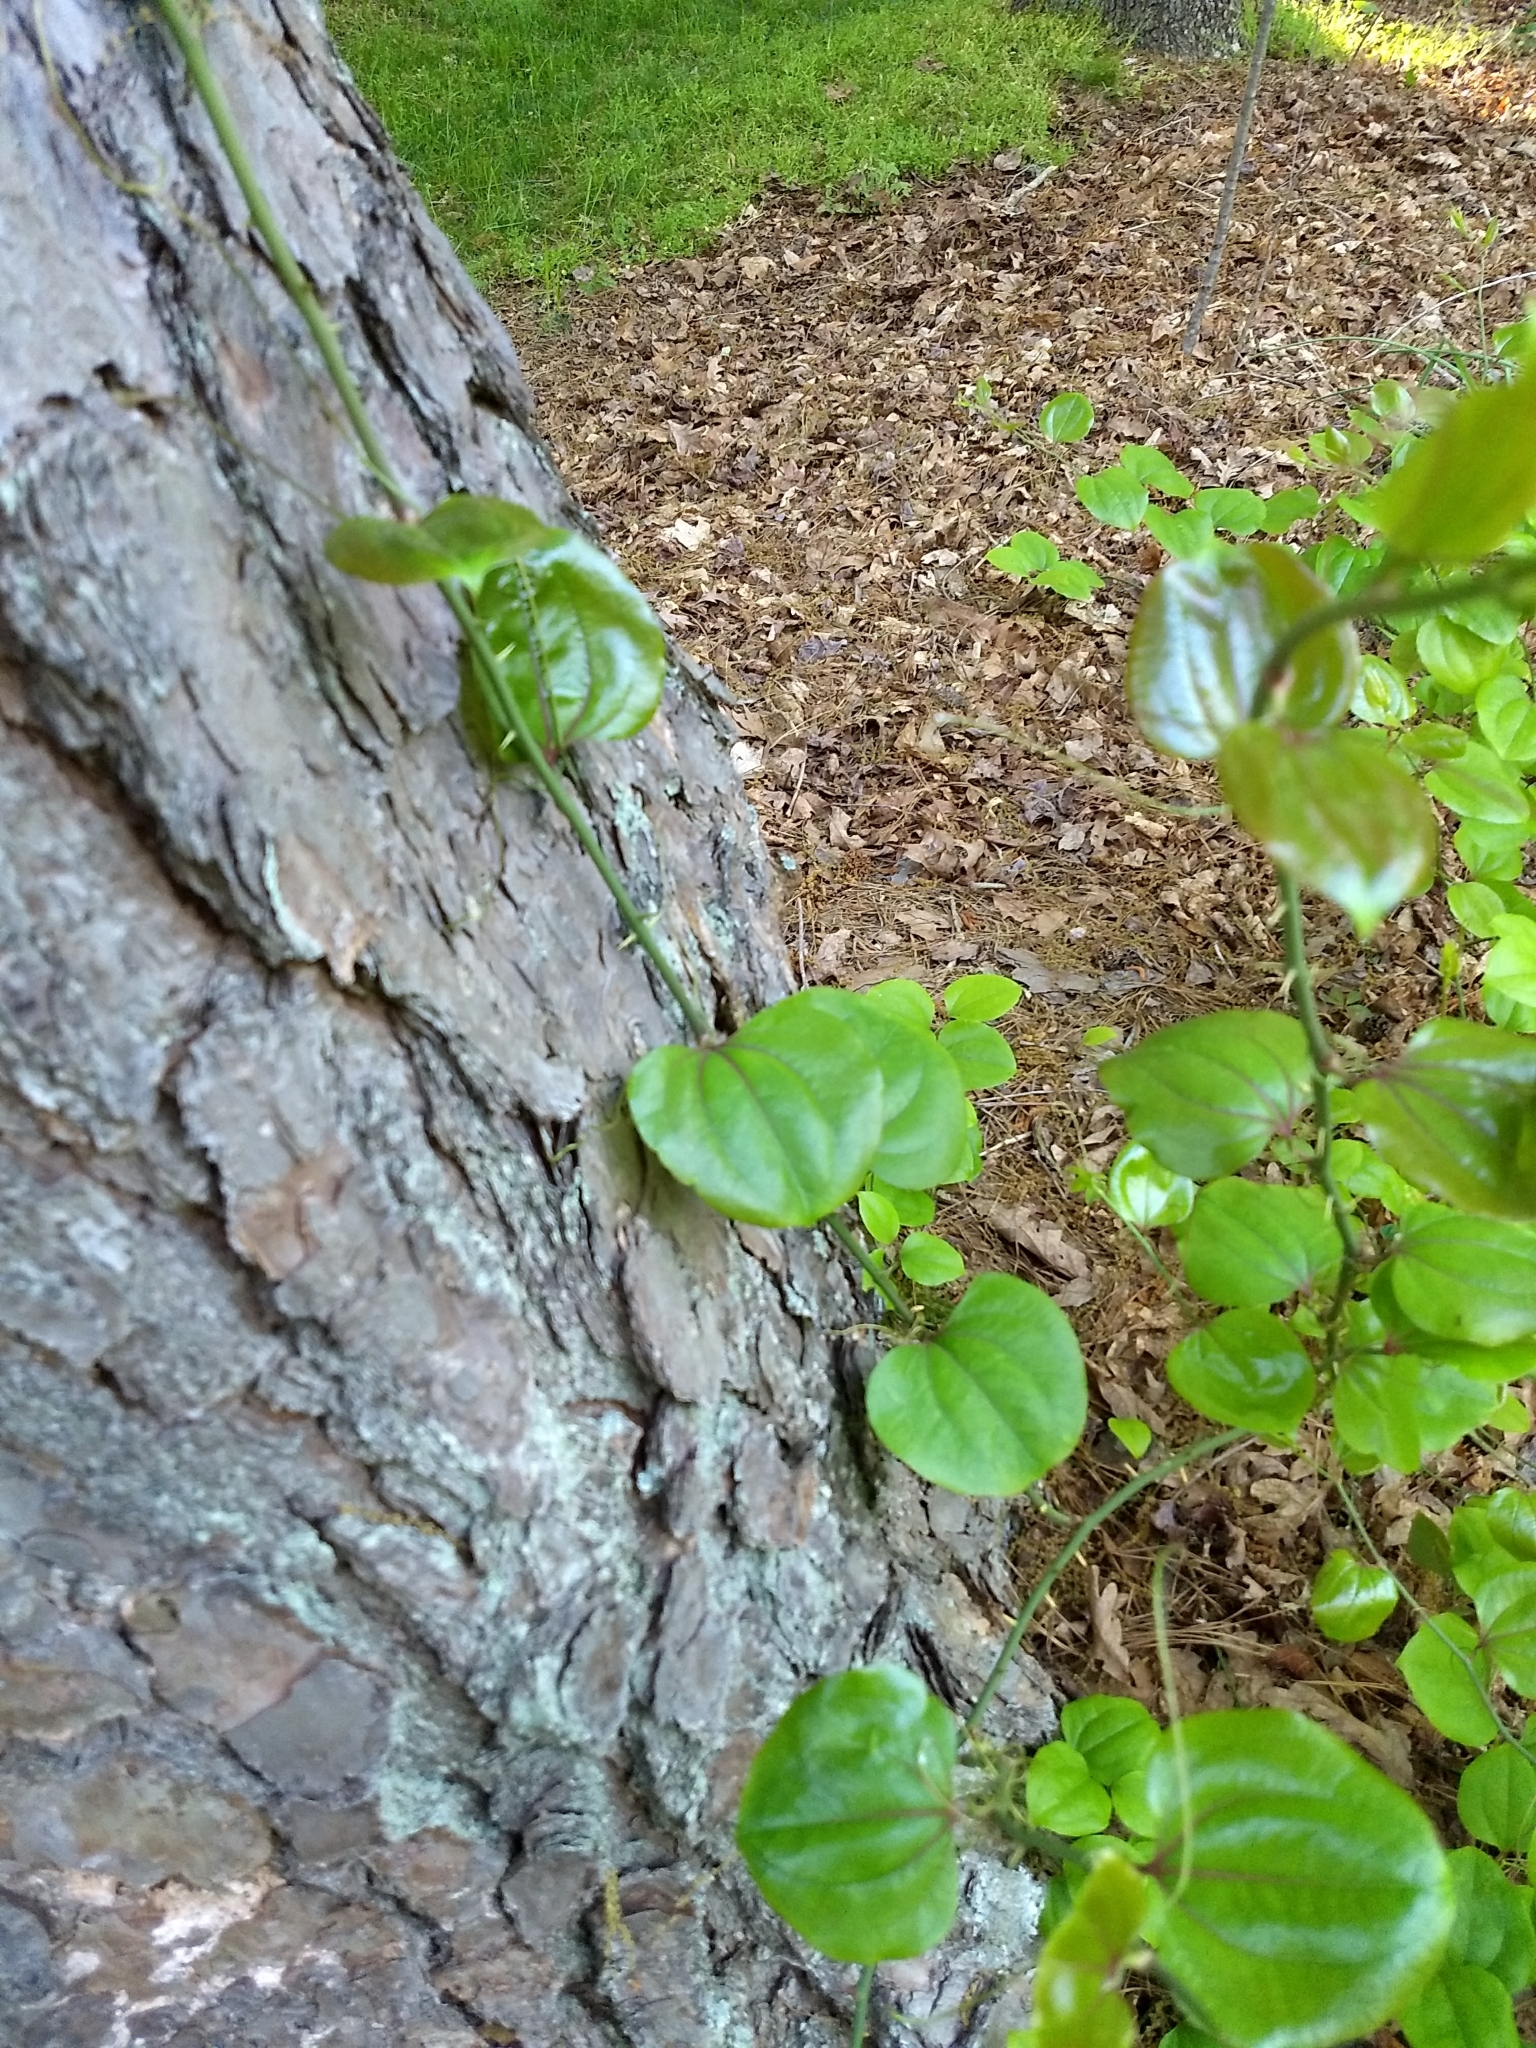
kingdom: Plantae
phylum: Tracheophyta
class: Liliopsida
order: Liliales
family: Smilacaceae
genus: Smilax
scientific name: Smilax rotundifolia
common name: Bullbriar
